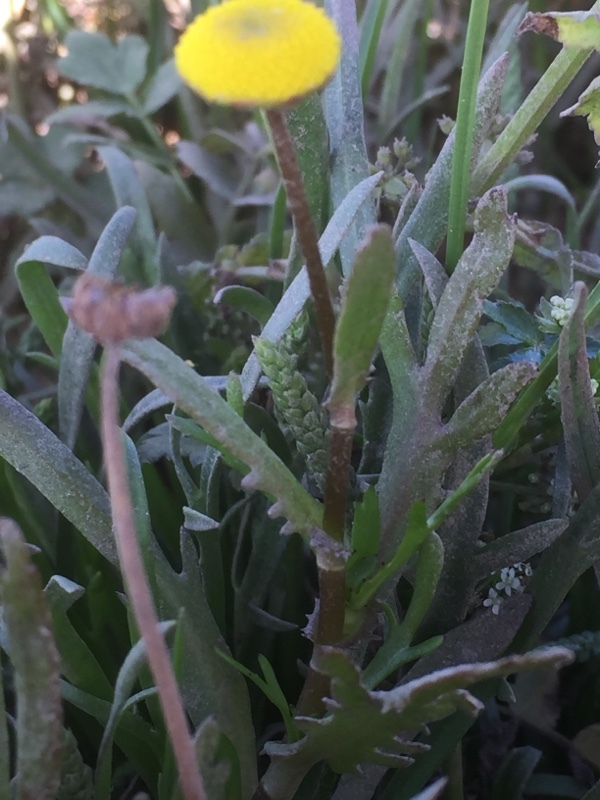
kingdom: Plantae
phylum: Tracheophyta
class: Magnoliopsida
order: Asterales
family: Asteraceae
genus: Cotula
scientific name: Cotula coronopifolia
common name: Buttonweed
